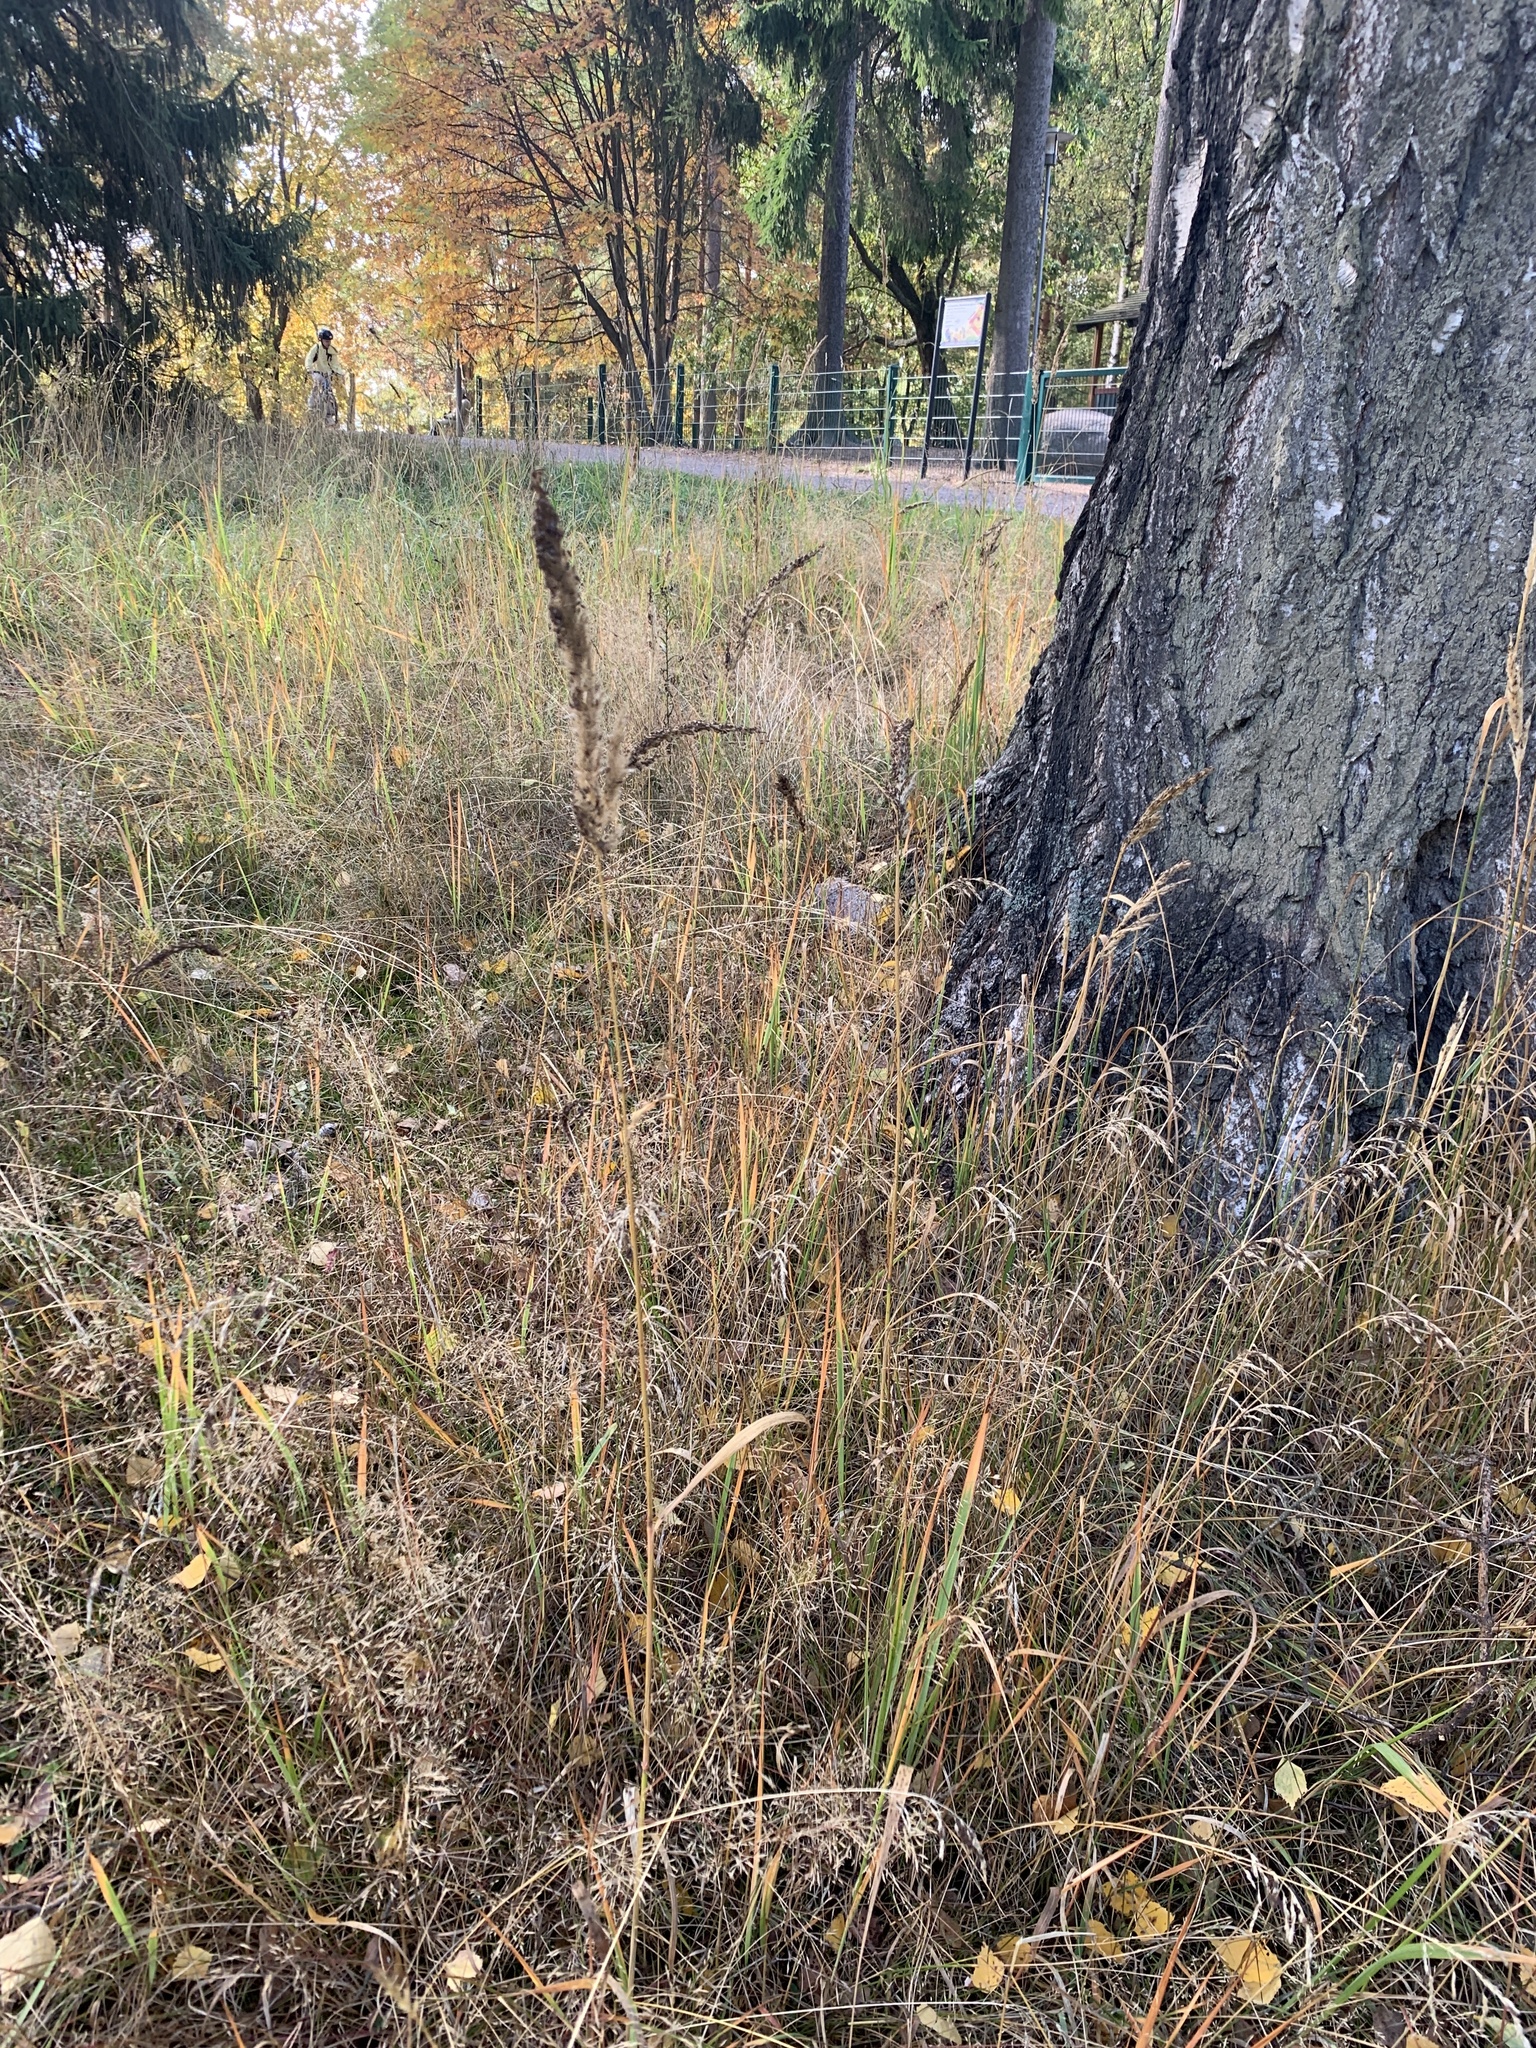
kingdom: Plantae
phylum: Tracheophyta
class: Liliopsida
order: Poales
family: Poaceae
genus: Calamagrostis
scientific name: Calamagrostis epigejos
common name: Wood small-reed
